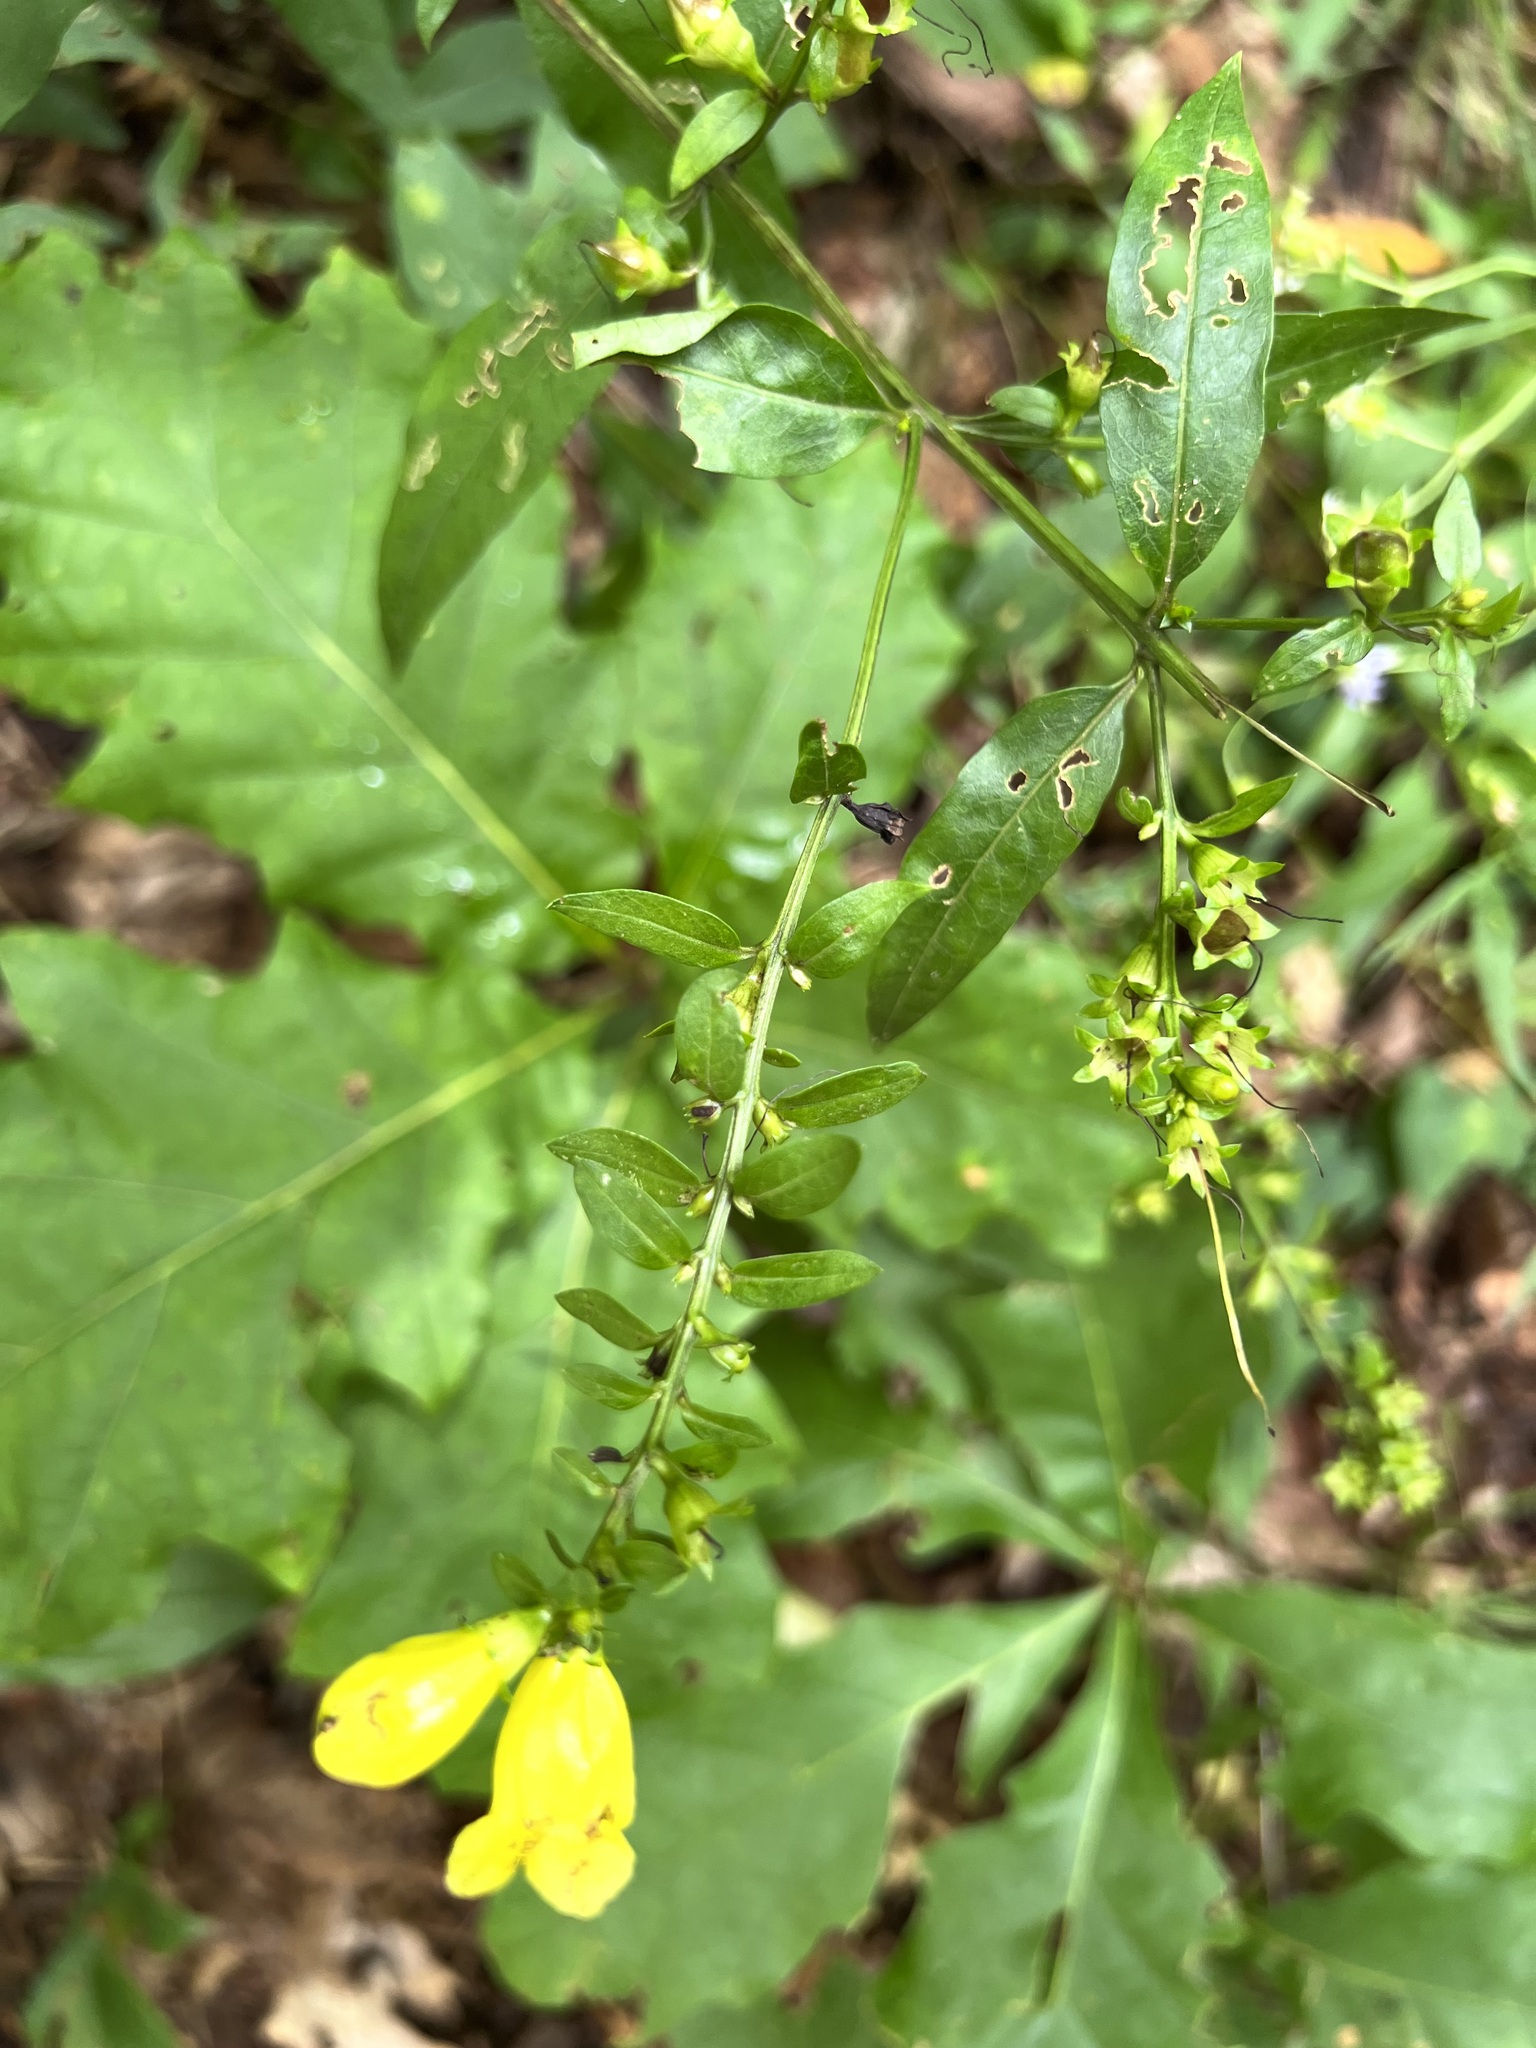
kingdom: Plantae
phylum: Tracheophyta
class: Magnoliopsida
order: Lamiales
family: Orobanchaceae
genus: Aureolaria
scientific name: Aureolaria flava
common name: Smooth false foxglove
